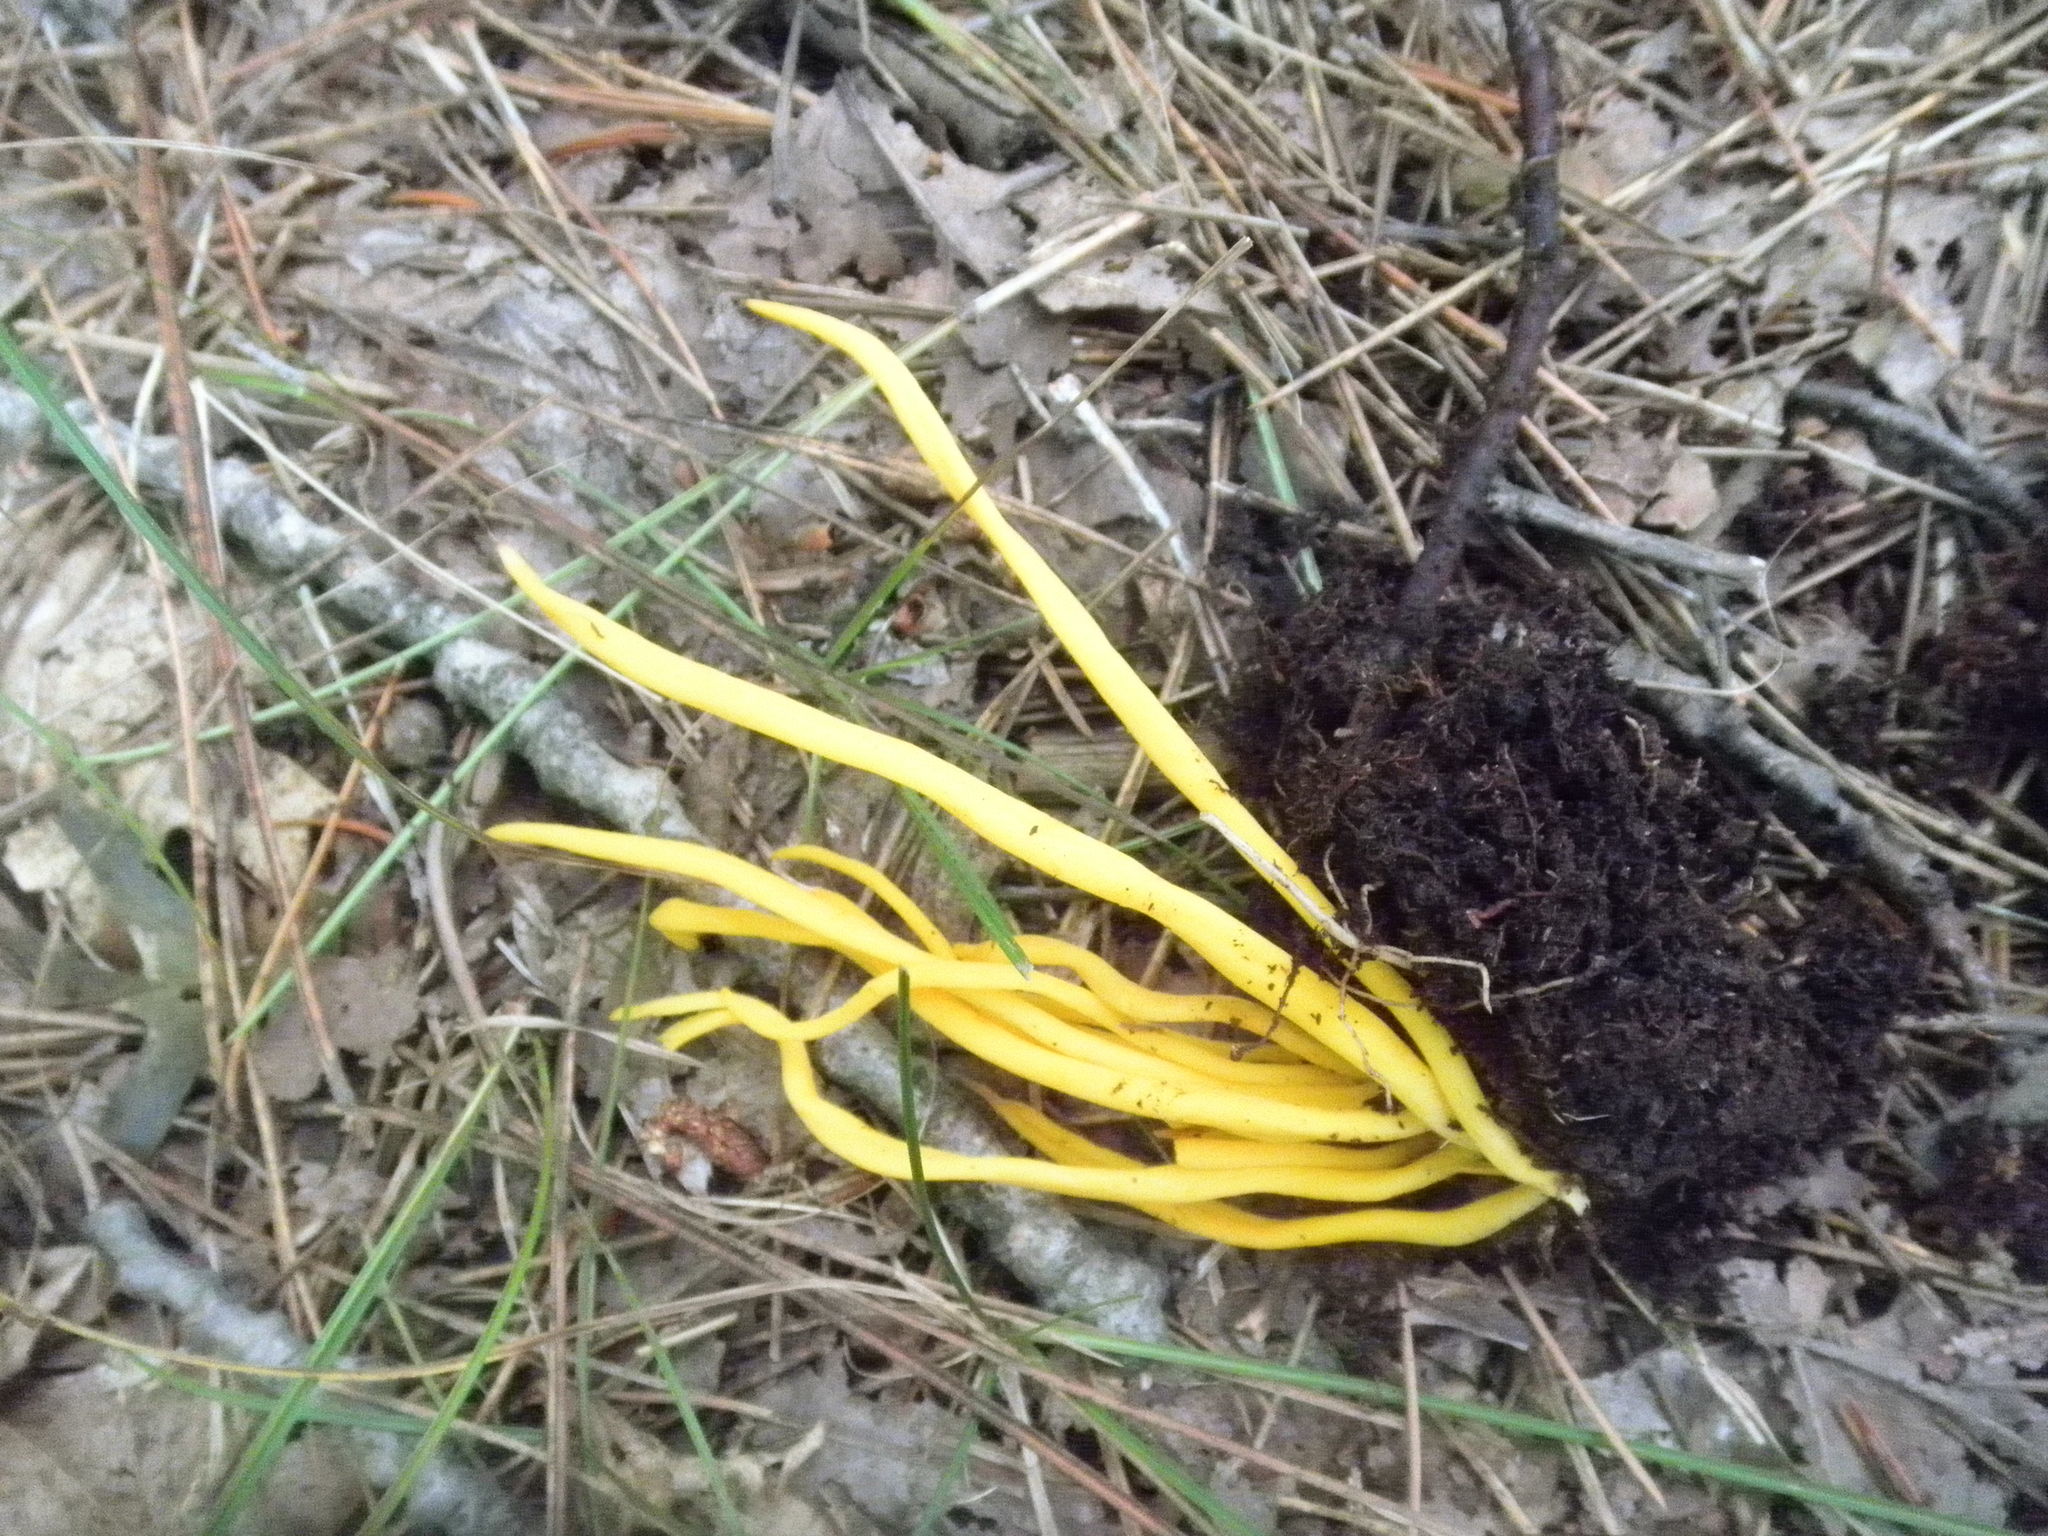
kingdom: Fungi
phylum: Basidiomycota
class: Agaricomycetes
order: Agaricales
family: Clavariaceae
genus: Clavulinopsis
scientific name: Clavulinopsis fusiformis
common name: Golden spindles
